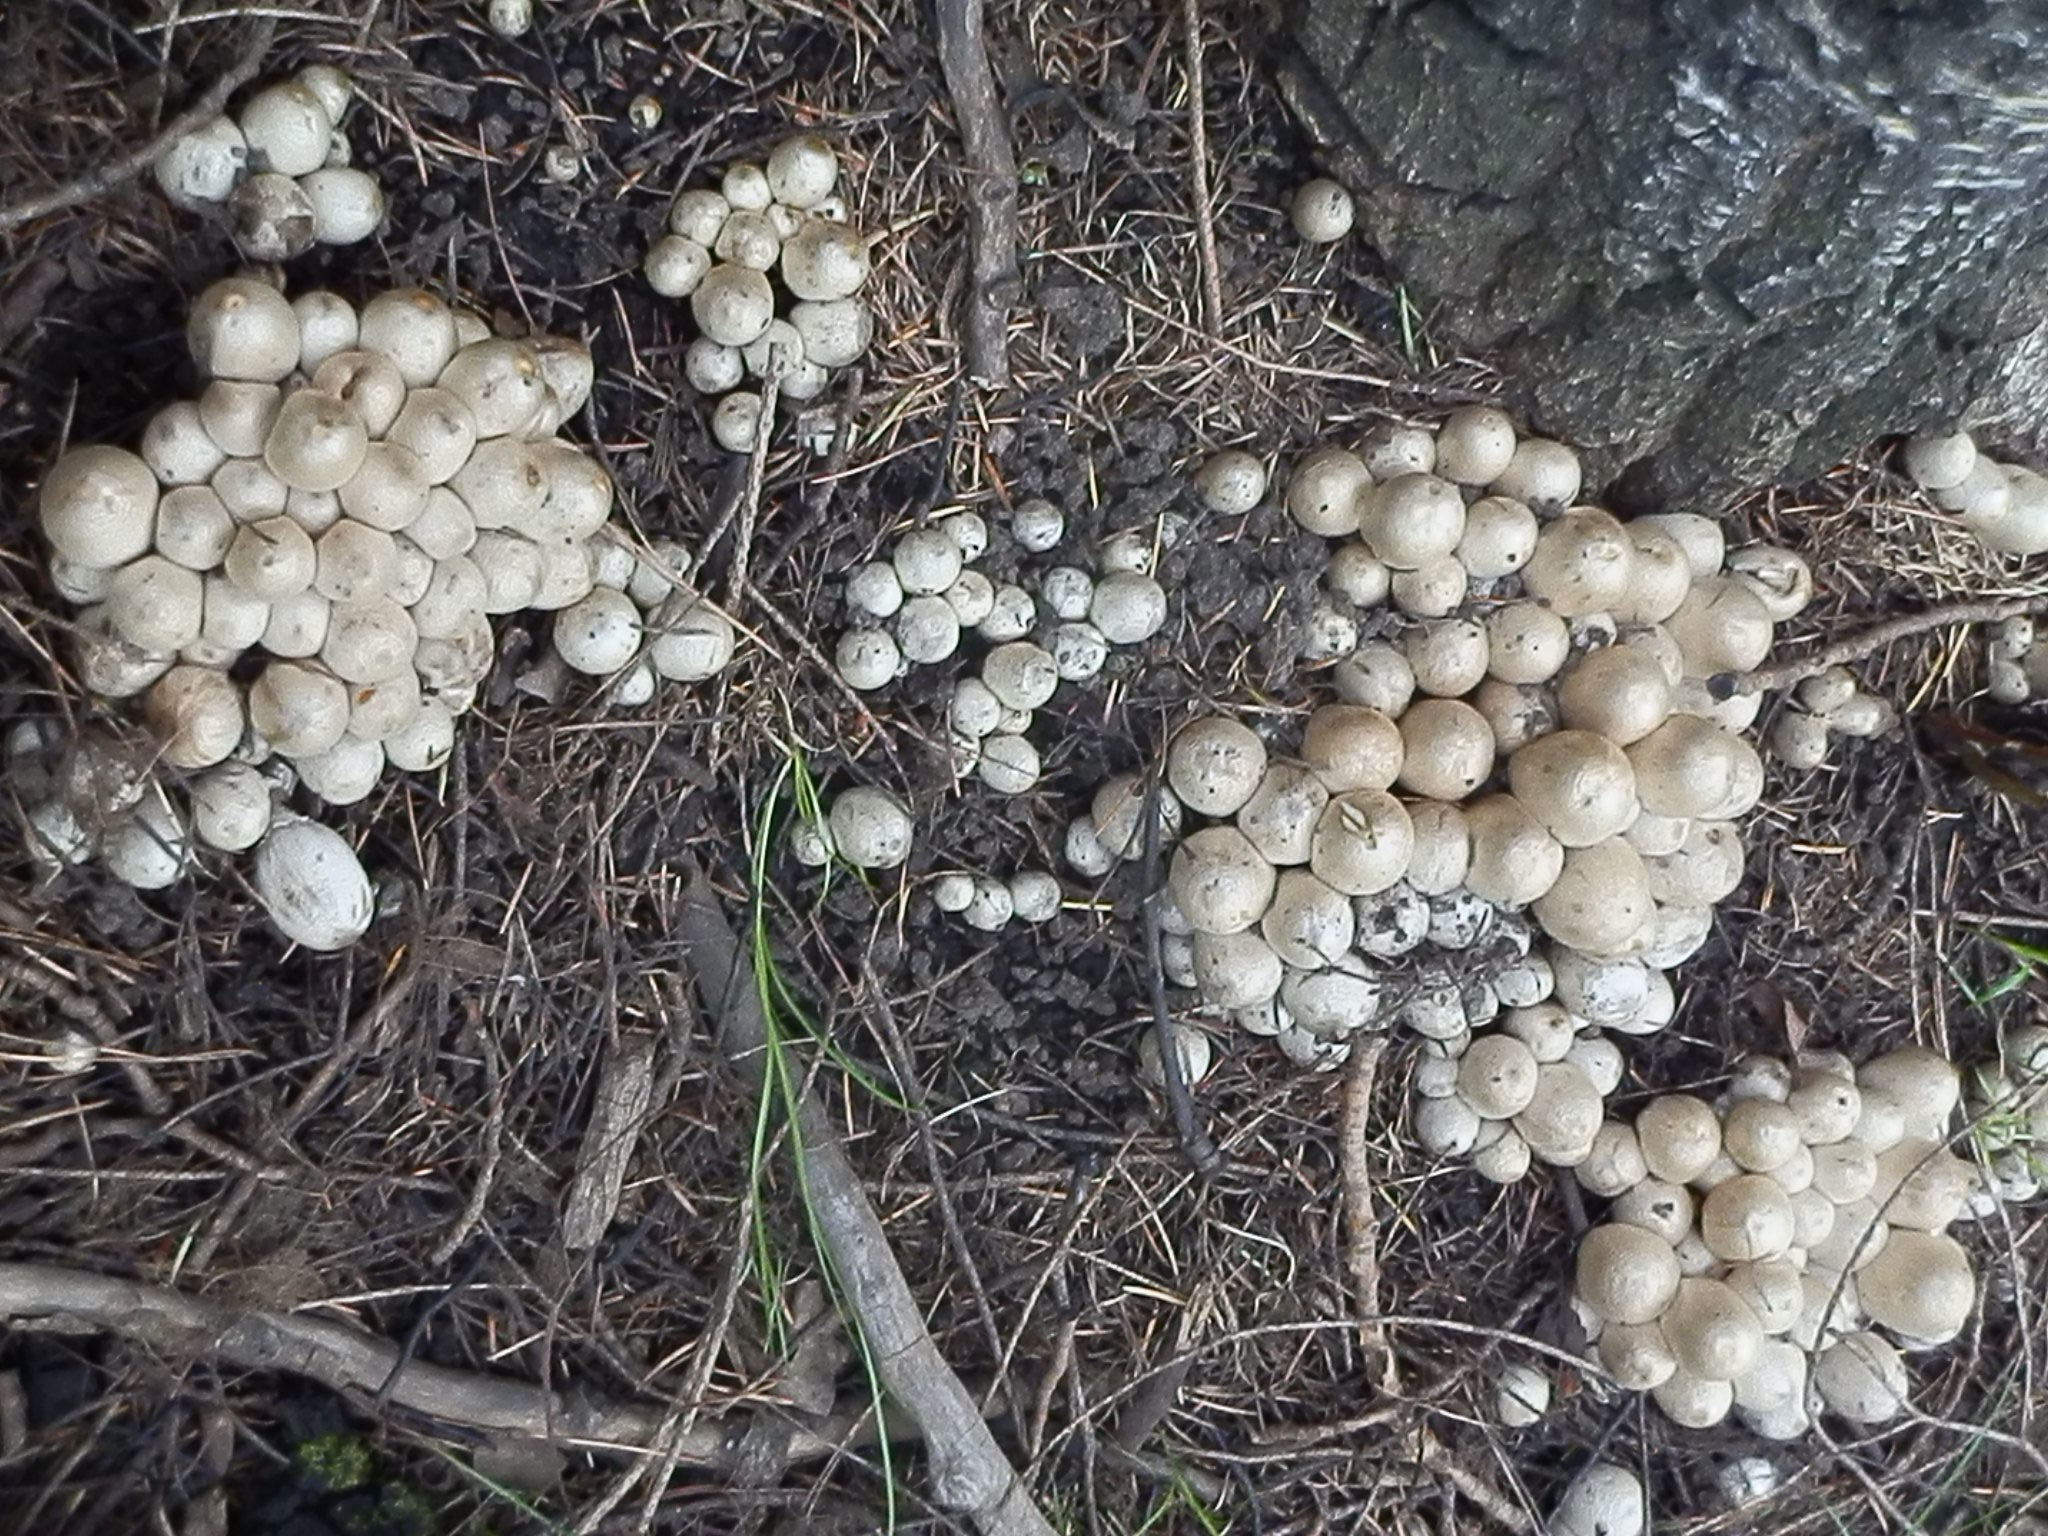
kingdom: Fungi
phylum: Basidiomycota
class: Agaricomycetes
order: Agaricales
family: Psathyrellaceae
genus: Coprinopsis
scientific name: Coprinopsis atramentaria
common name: Common ink-cap
